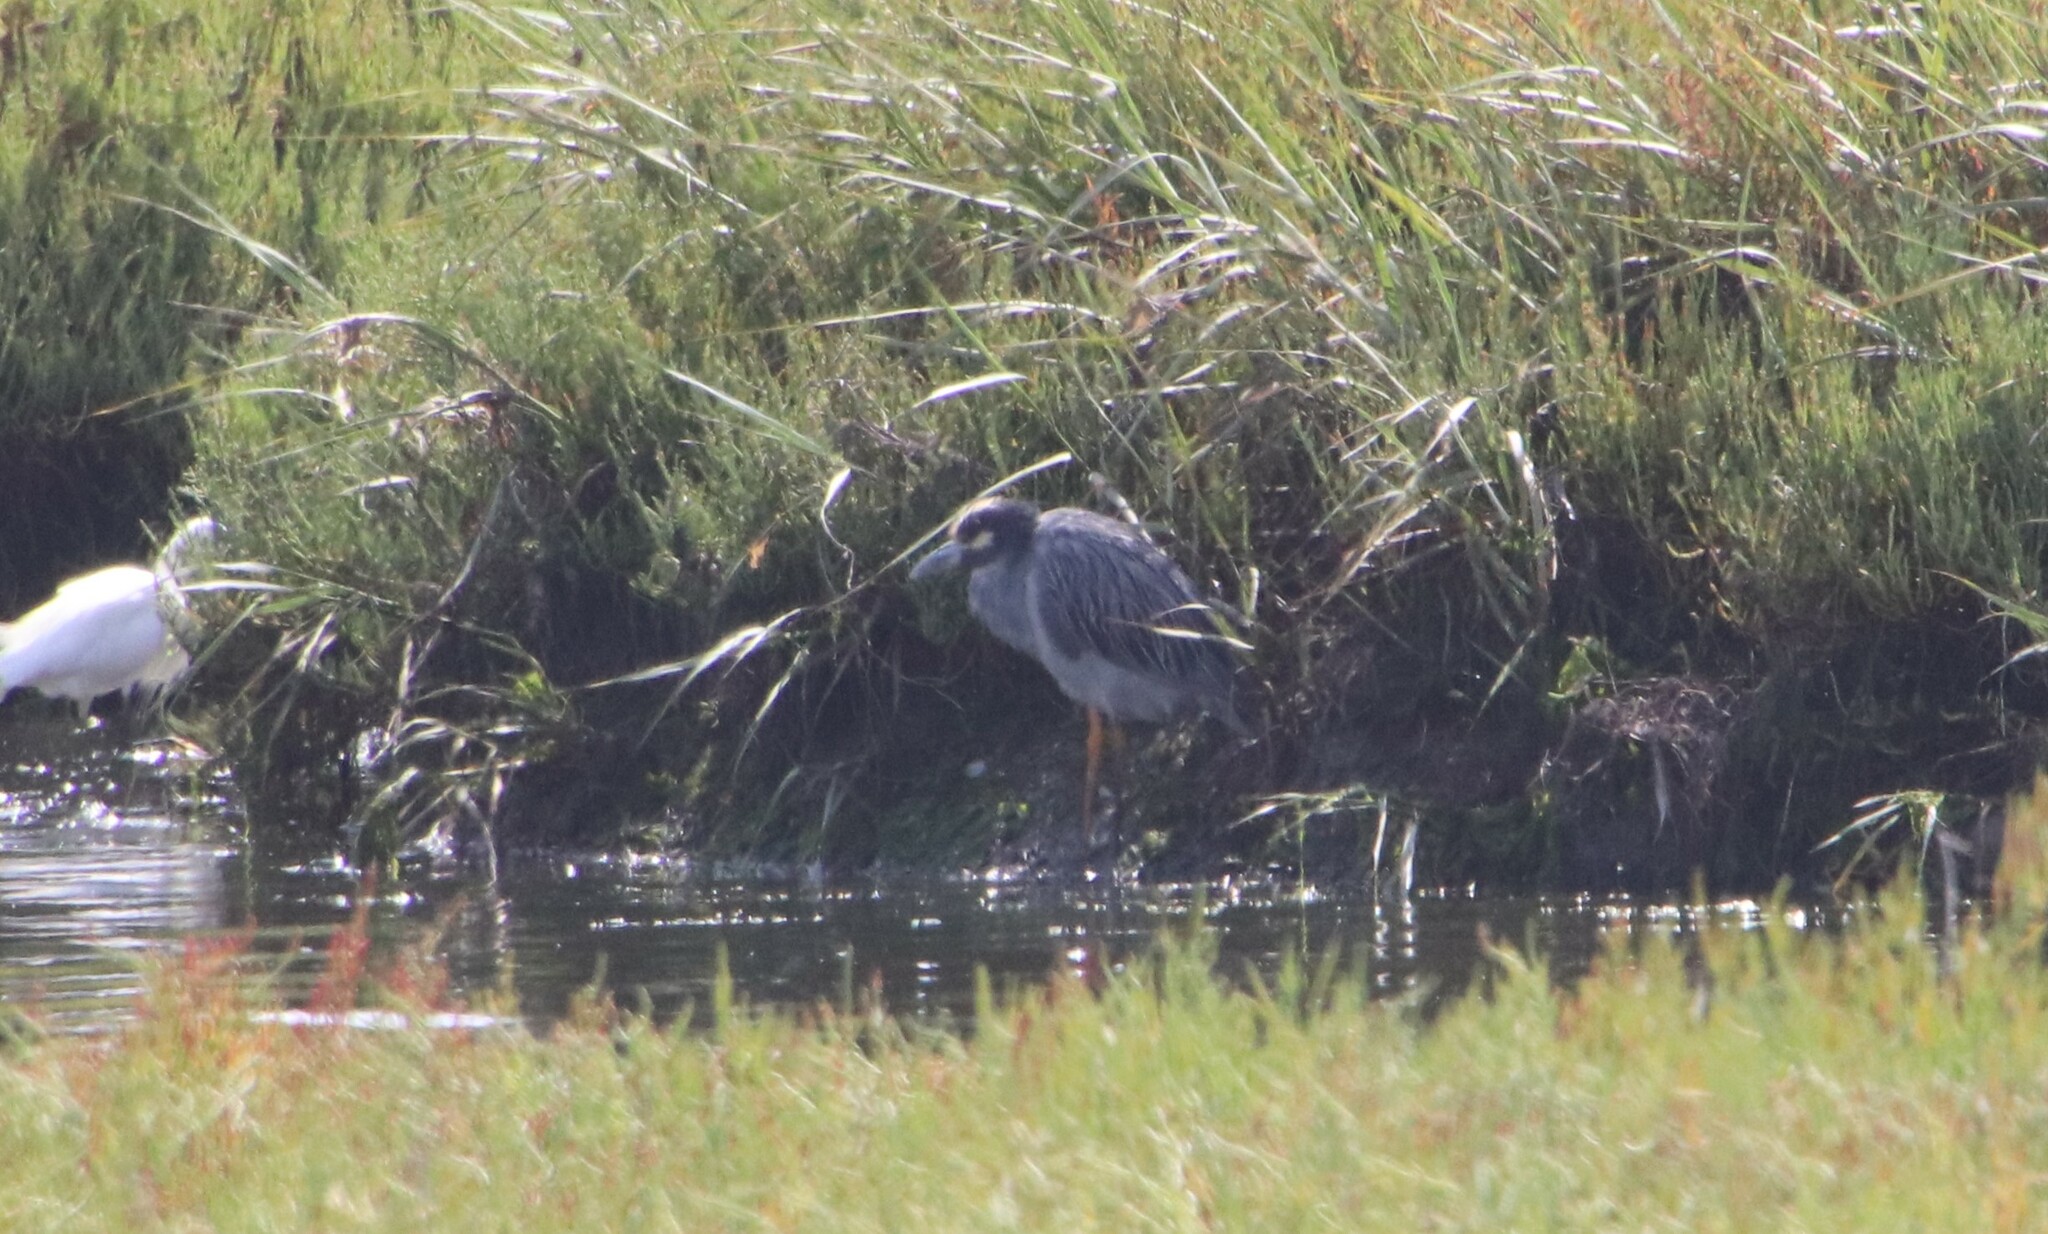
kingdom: Animalia
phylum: Chordata
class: Aves
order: Pelecaniformes
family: Ardeidae
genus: Nyctanassa
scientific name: Nyctanassa violacea
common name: Yellow-crowned night heron
